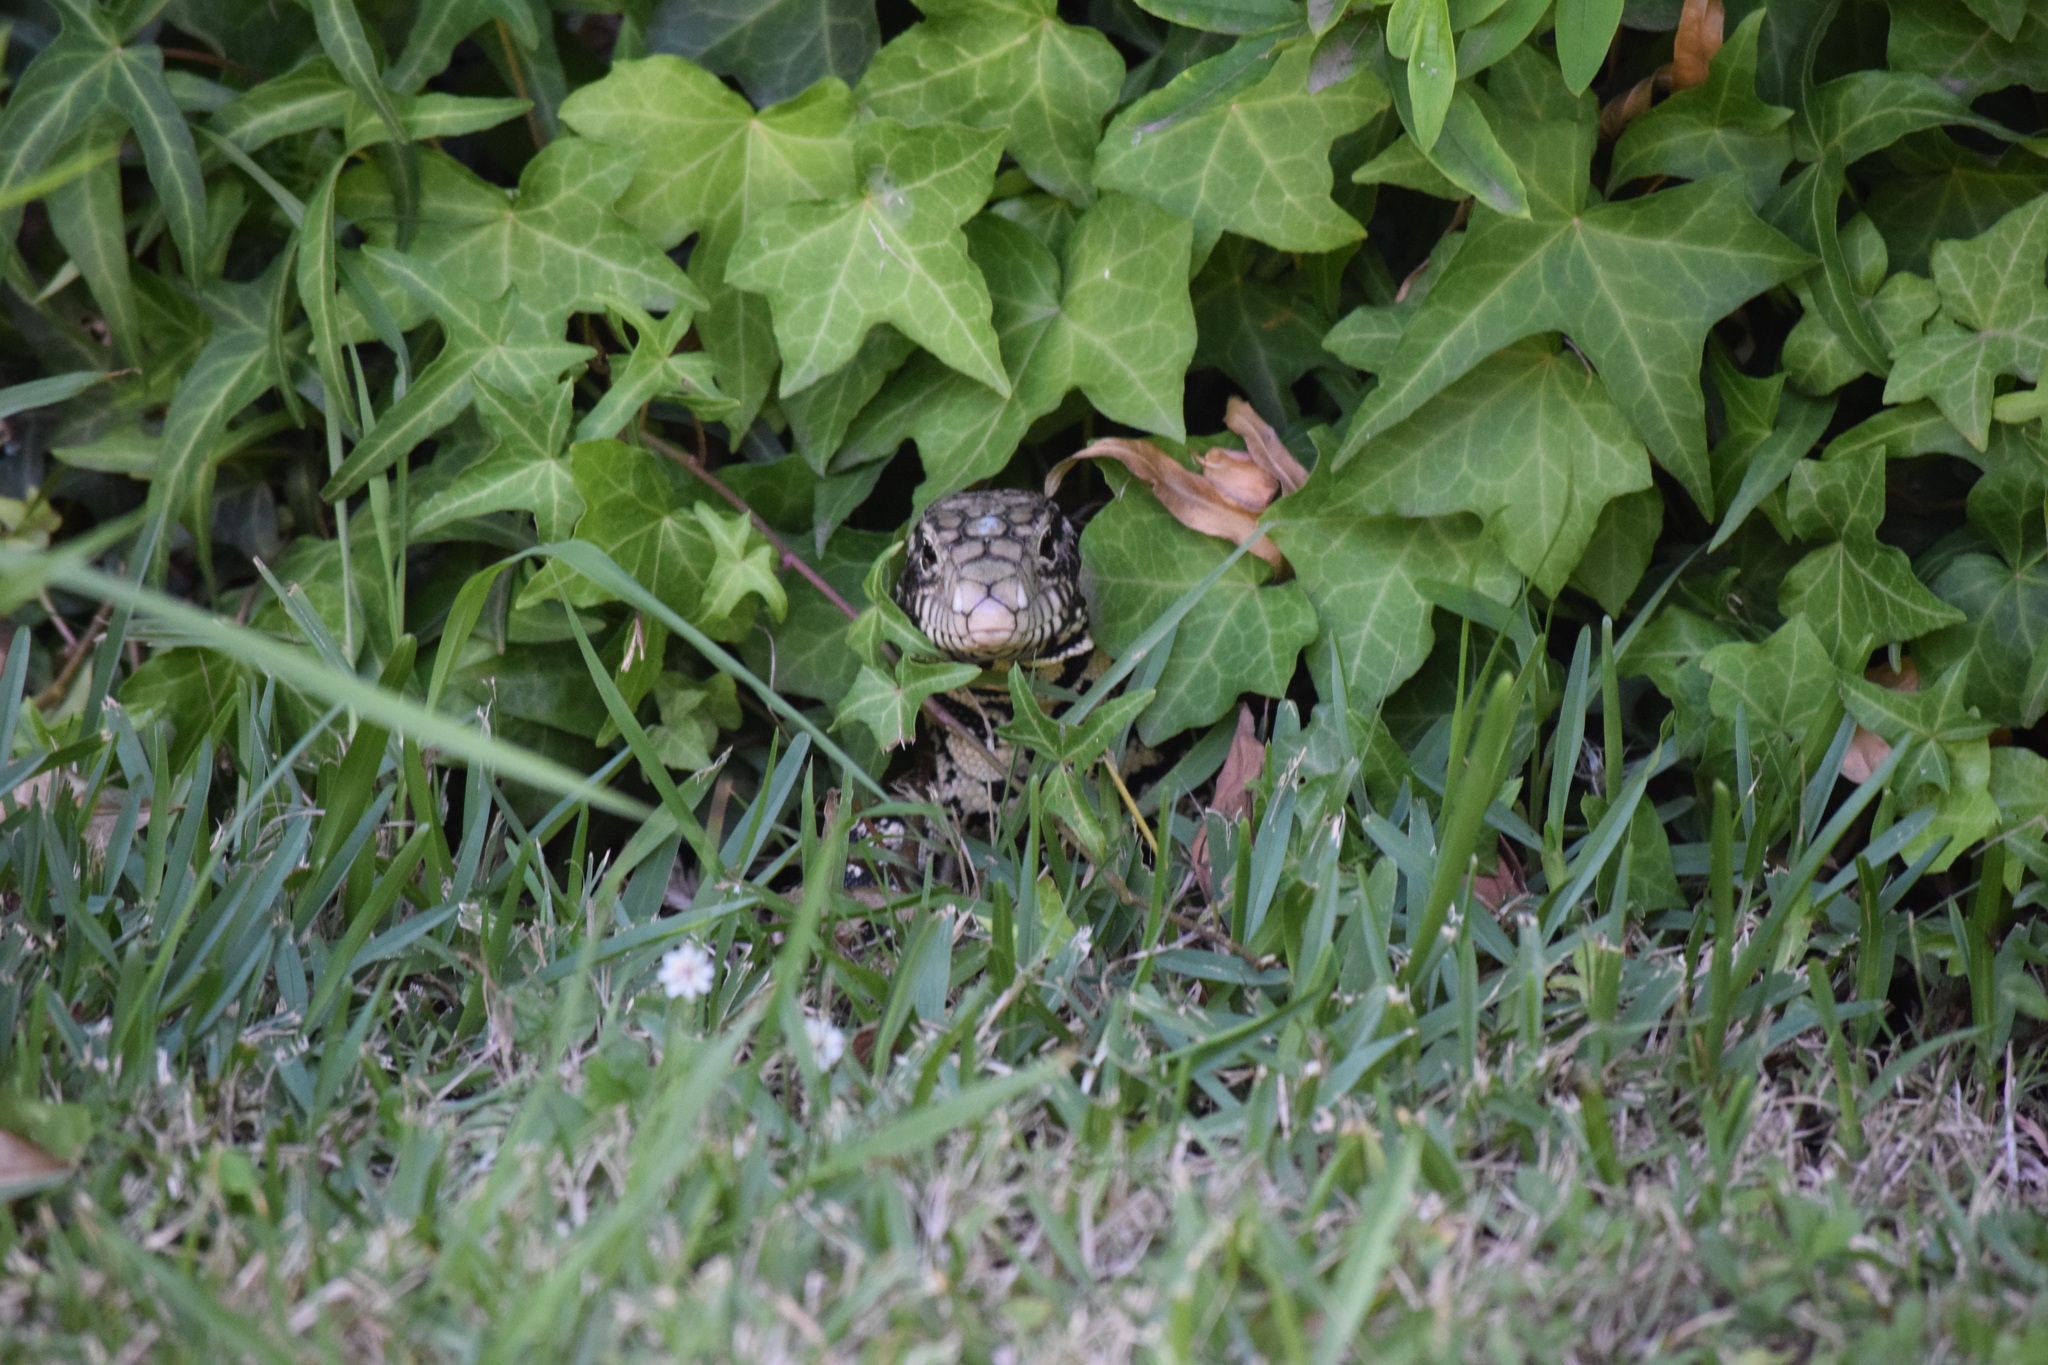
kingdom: Animalia
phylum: Chordata
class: Squamata
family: Teiidae
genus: Salvator
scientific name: Salvator merianae
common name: Argentine black and white tegu
